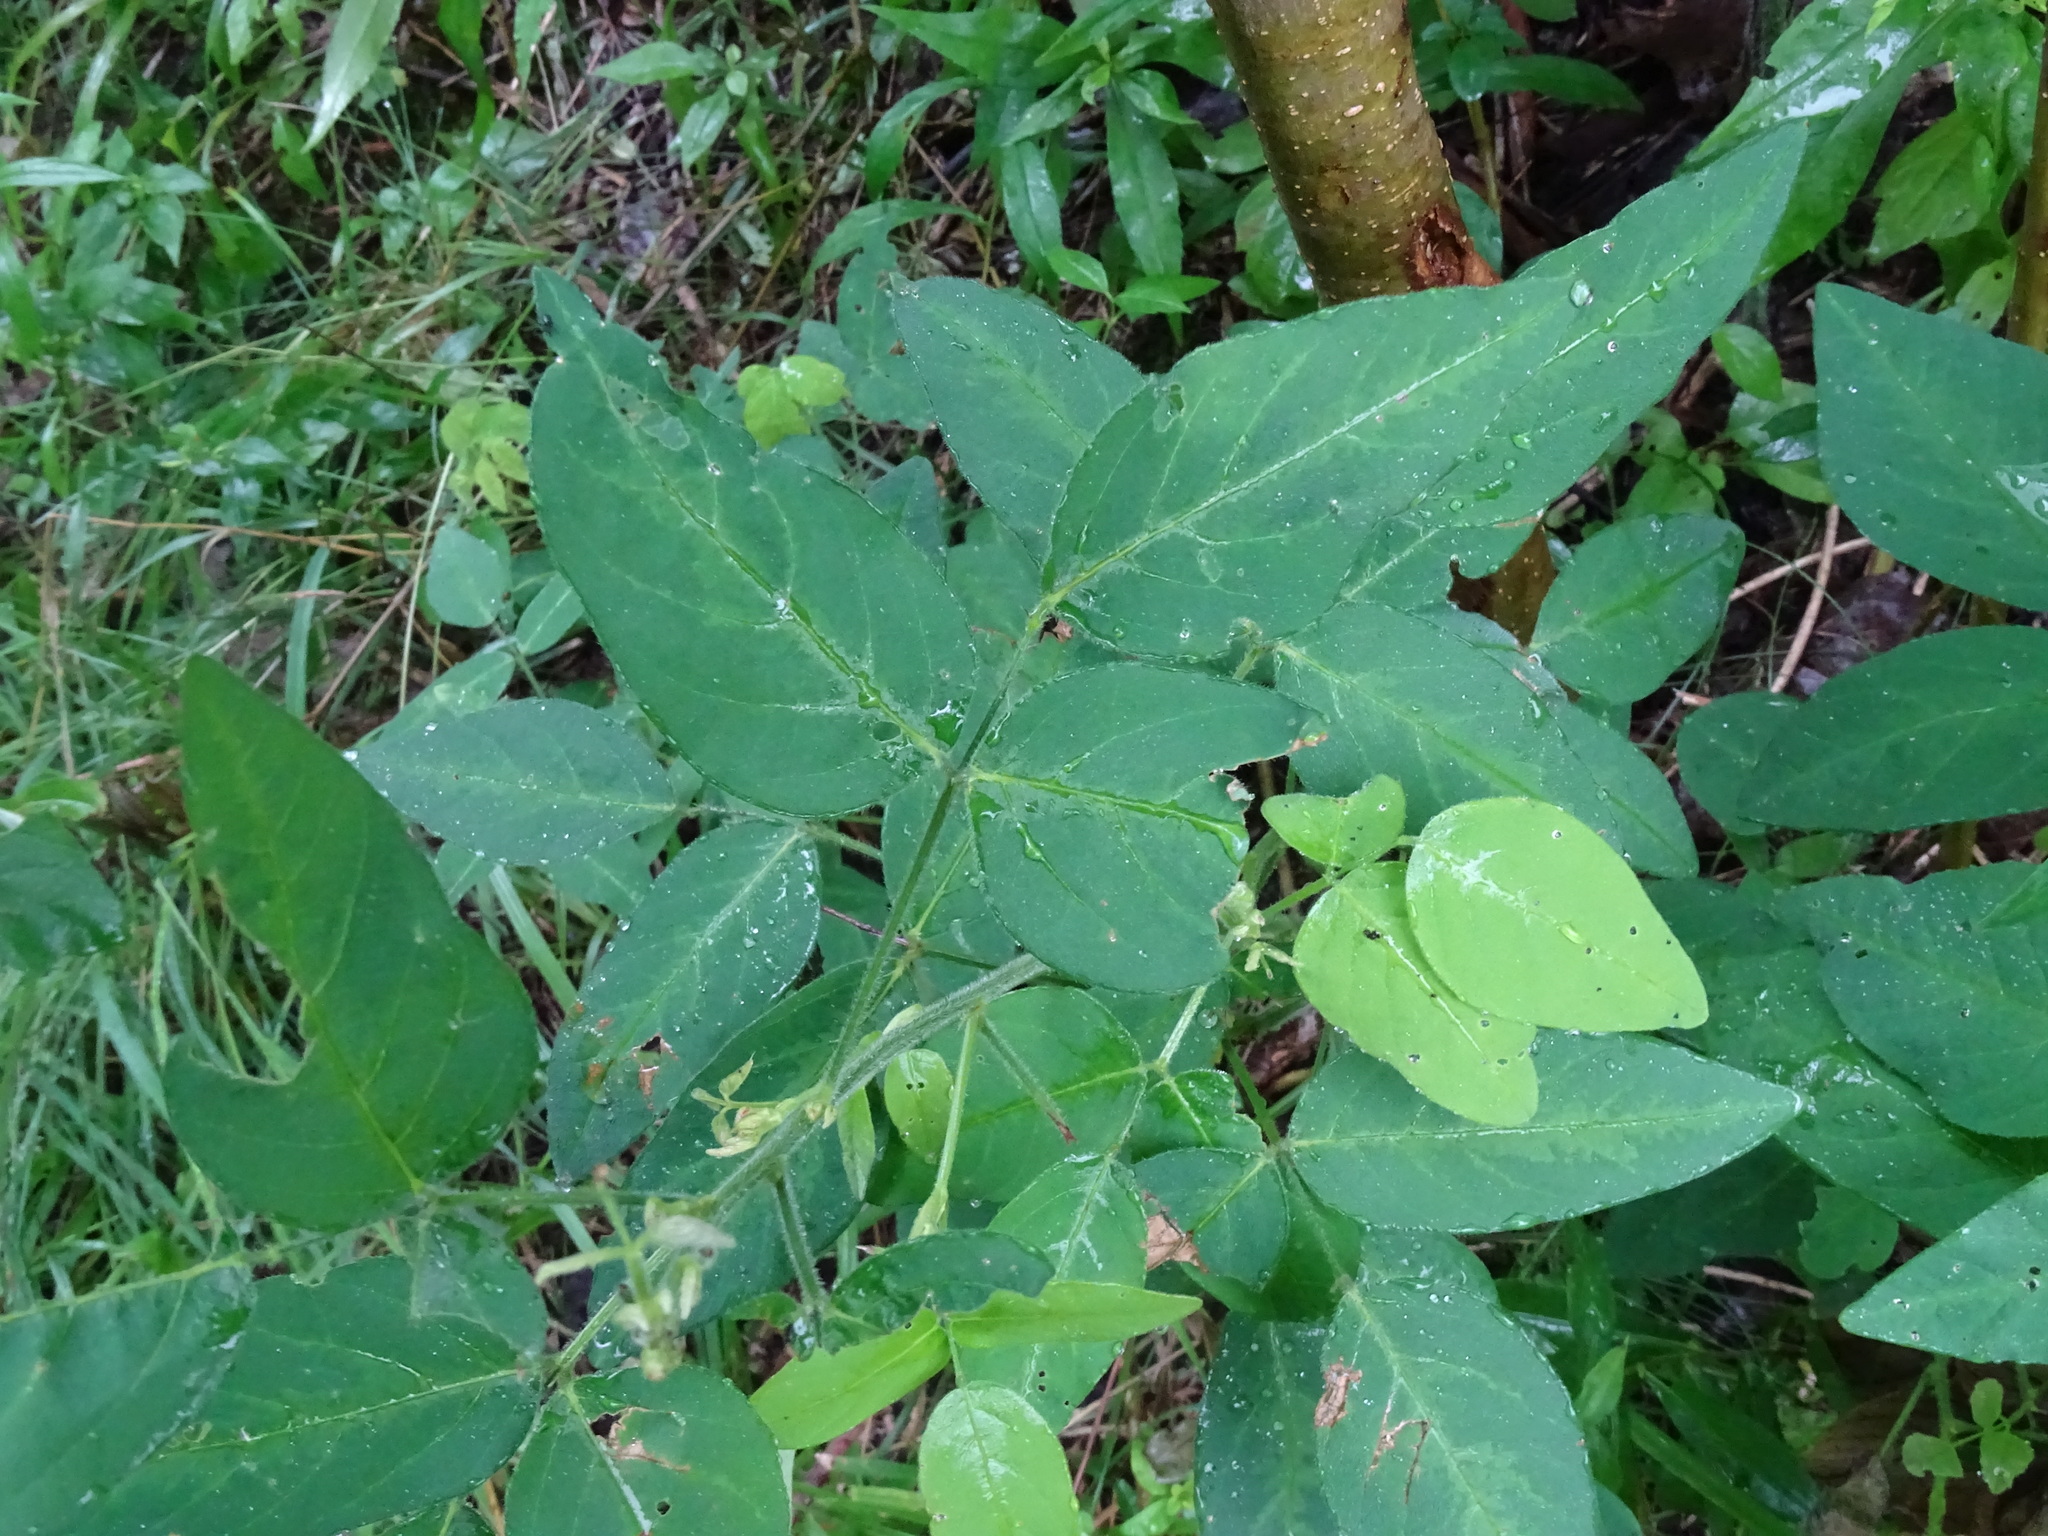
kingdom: Plantae
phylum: Tracheophyta
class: Magnoliopsida
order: Fabales
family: Fabaceae
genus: Desmodium
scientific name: Desmodium perplexum
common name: Perplexed tick trefoil
